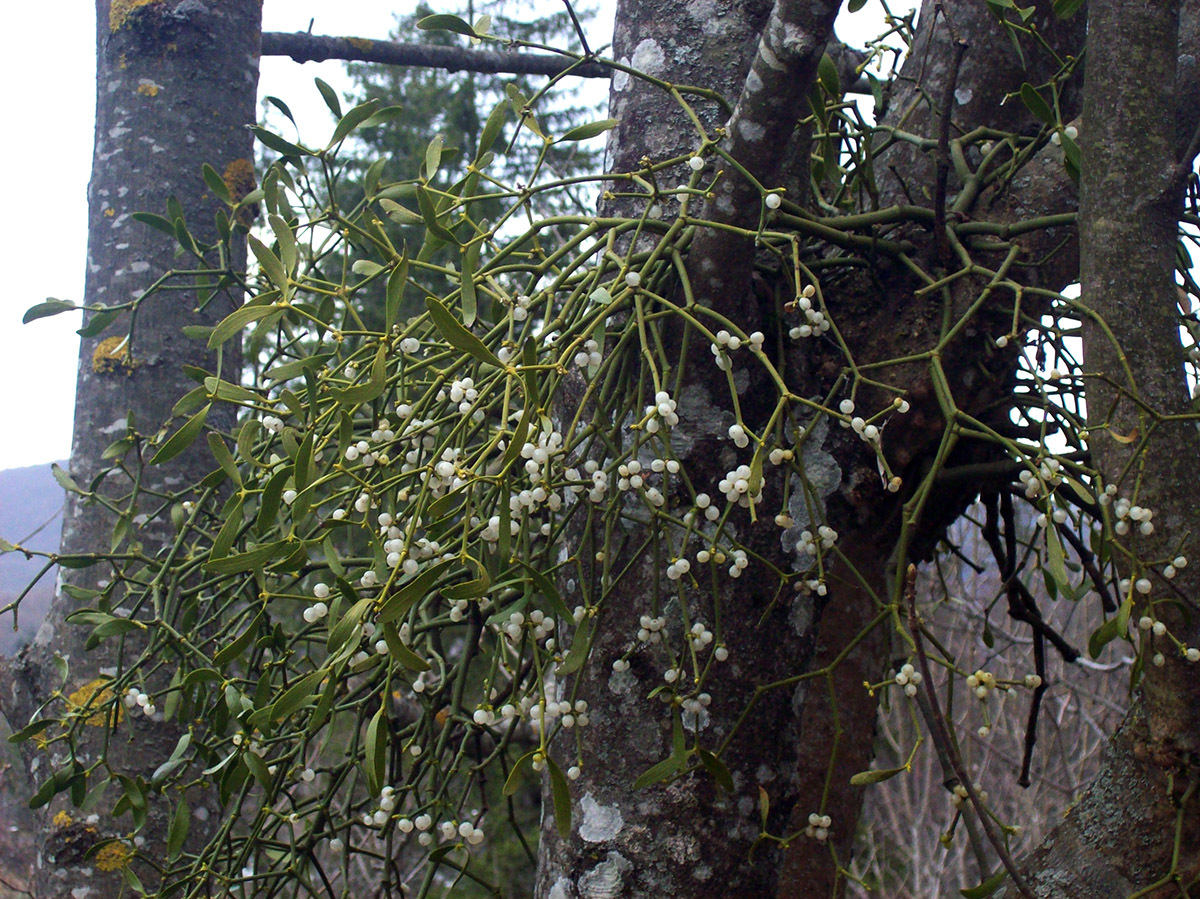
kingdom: Plantae
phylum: Tracheophyta
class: Magnoliopsida
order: Santalales
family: Viscaceae
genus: Viscum
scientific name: Viscum album
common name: Mistletoe
